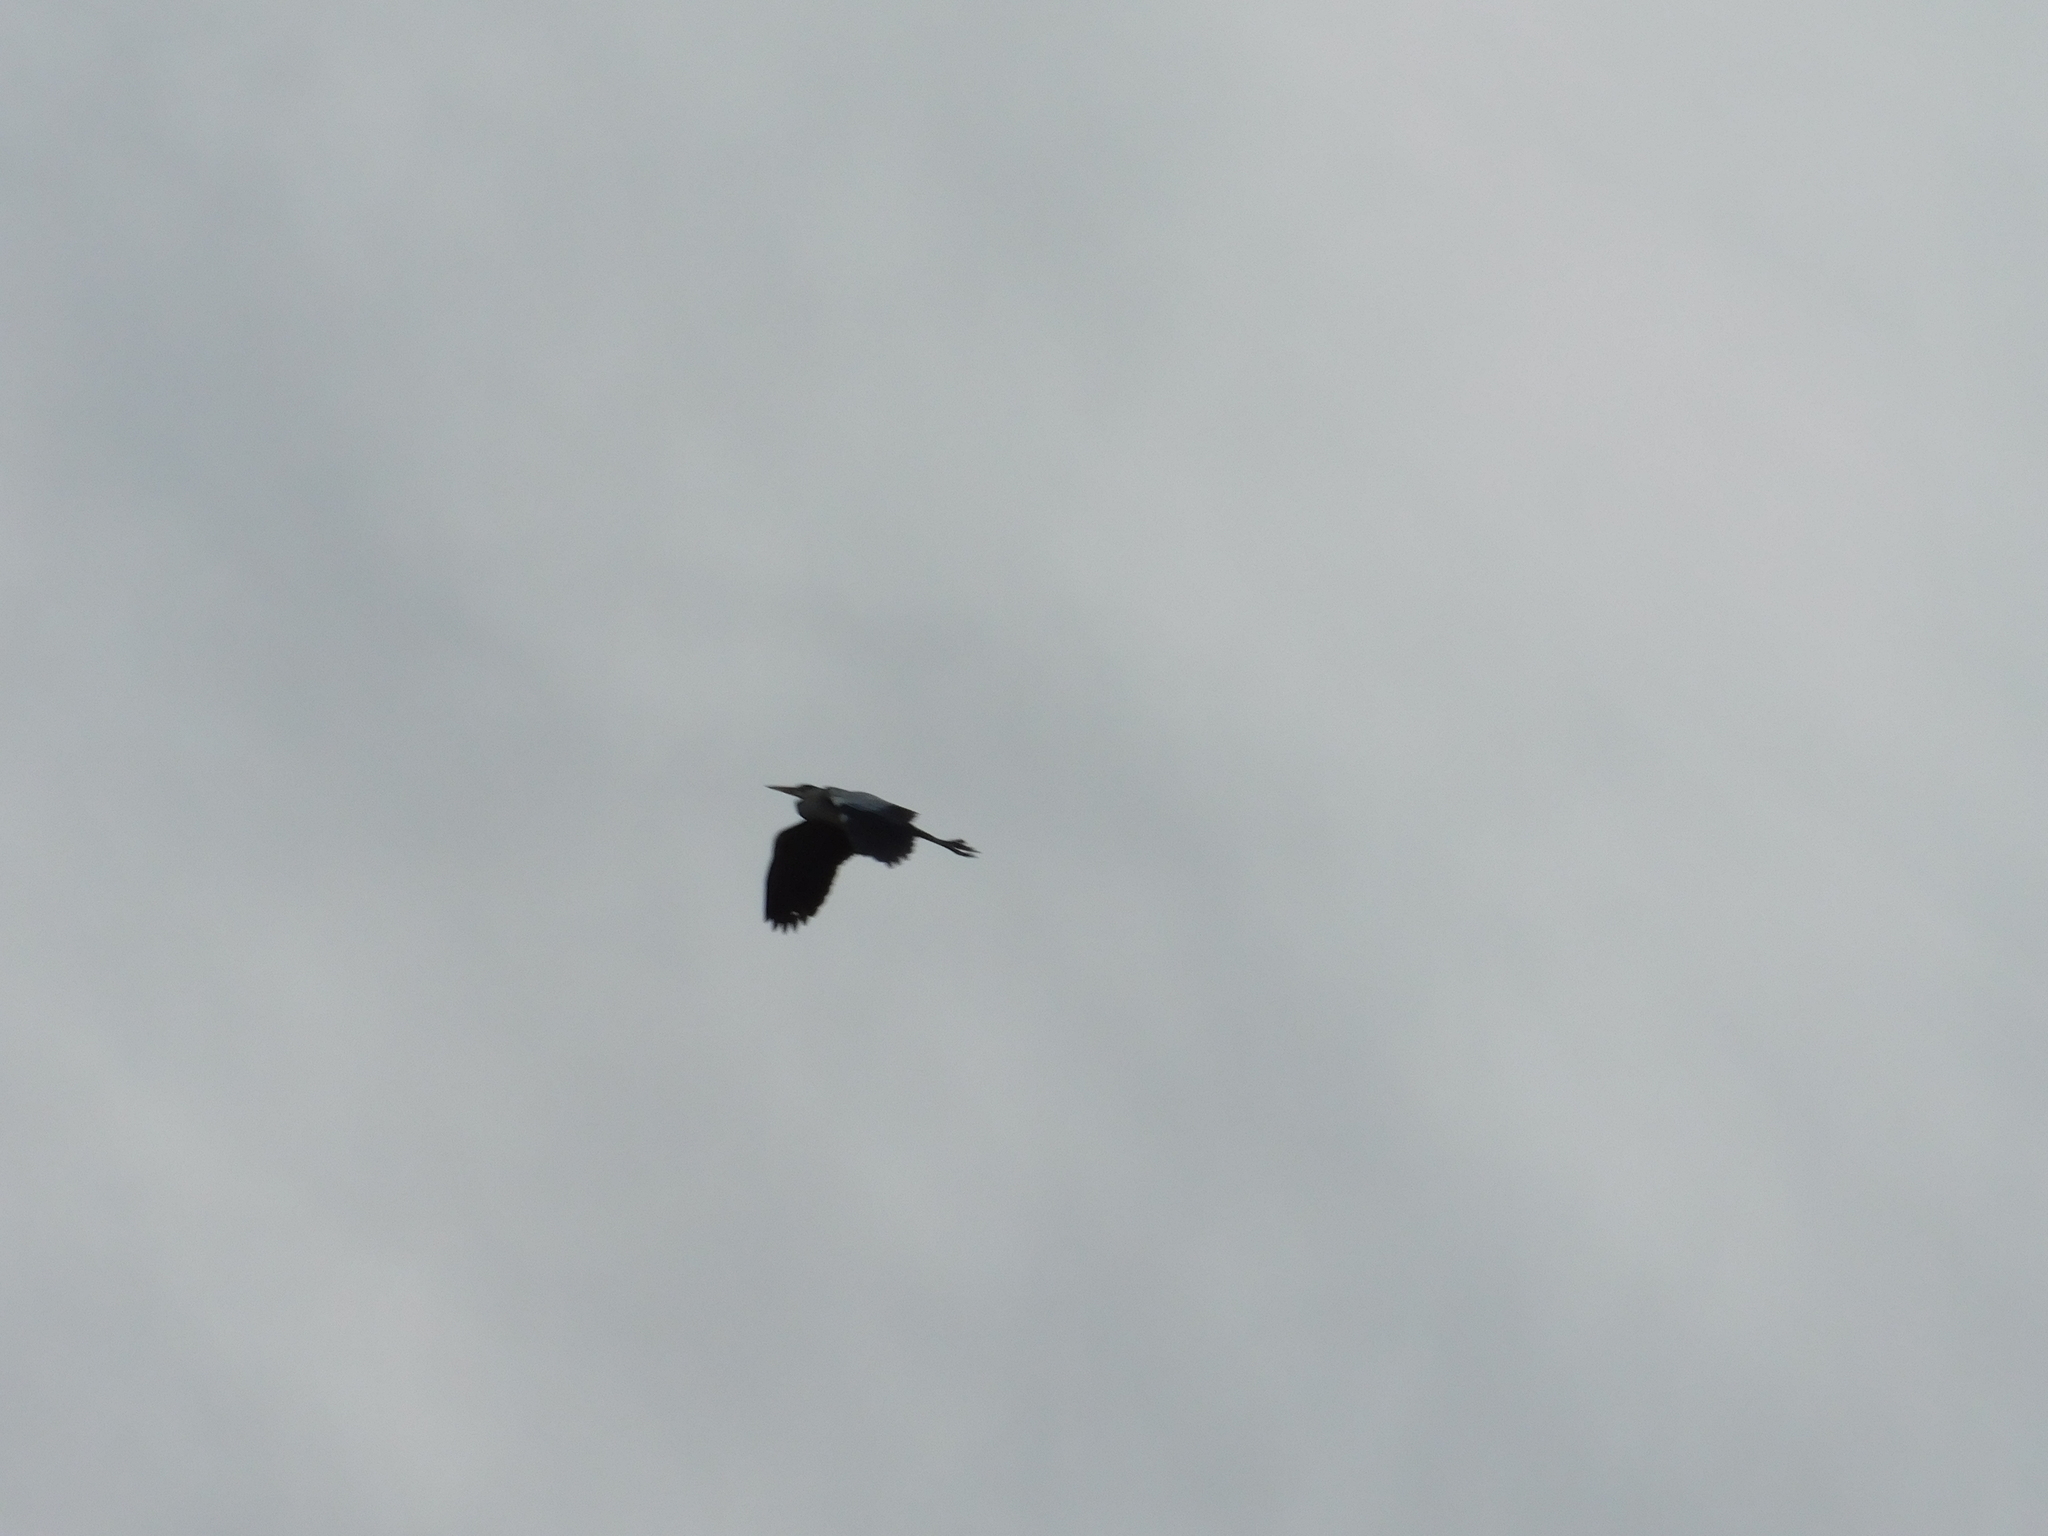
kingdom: Animalia
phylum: Chordata
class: Aves
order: Pelecaniformes
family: Ardeidae
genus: Ardea
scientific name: Ardea cinerea
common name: Grey heron
